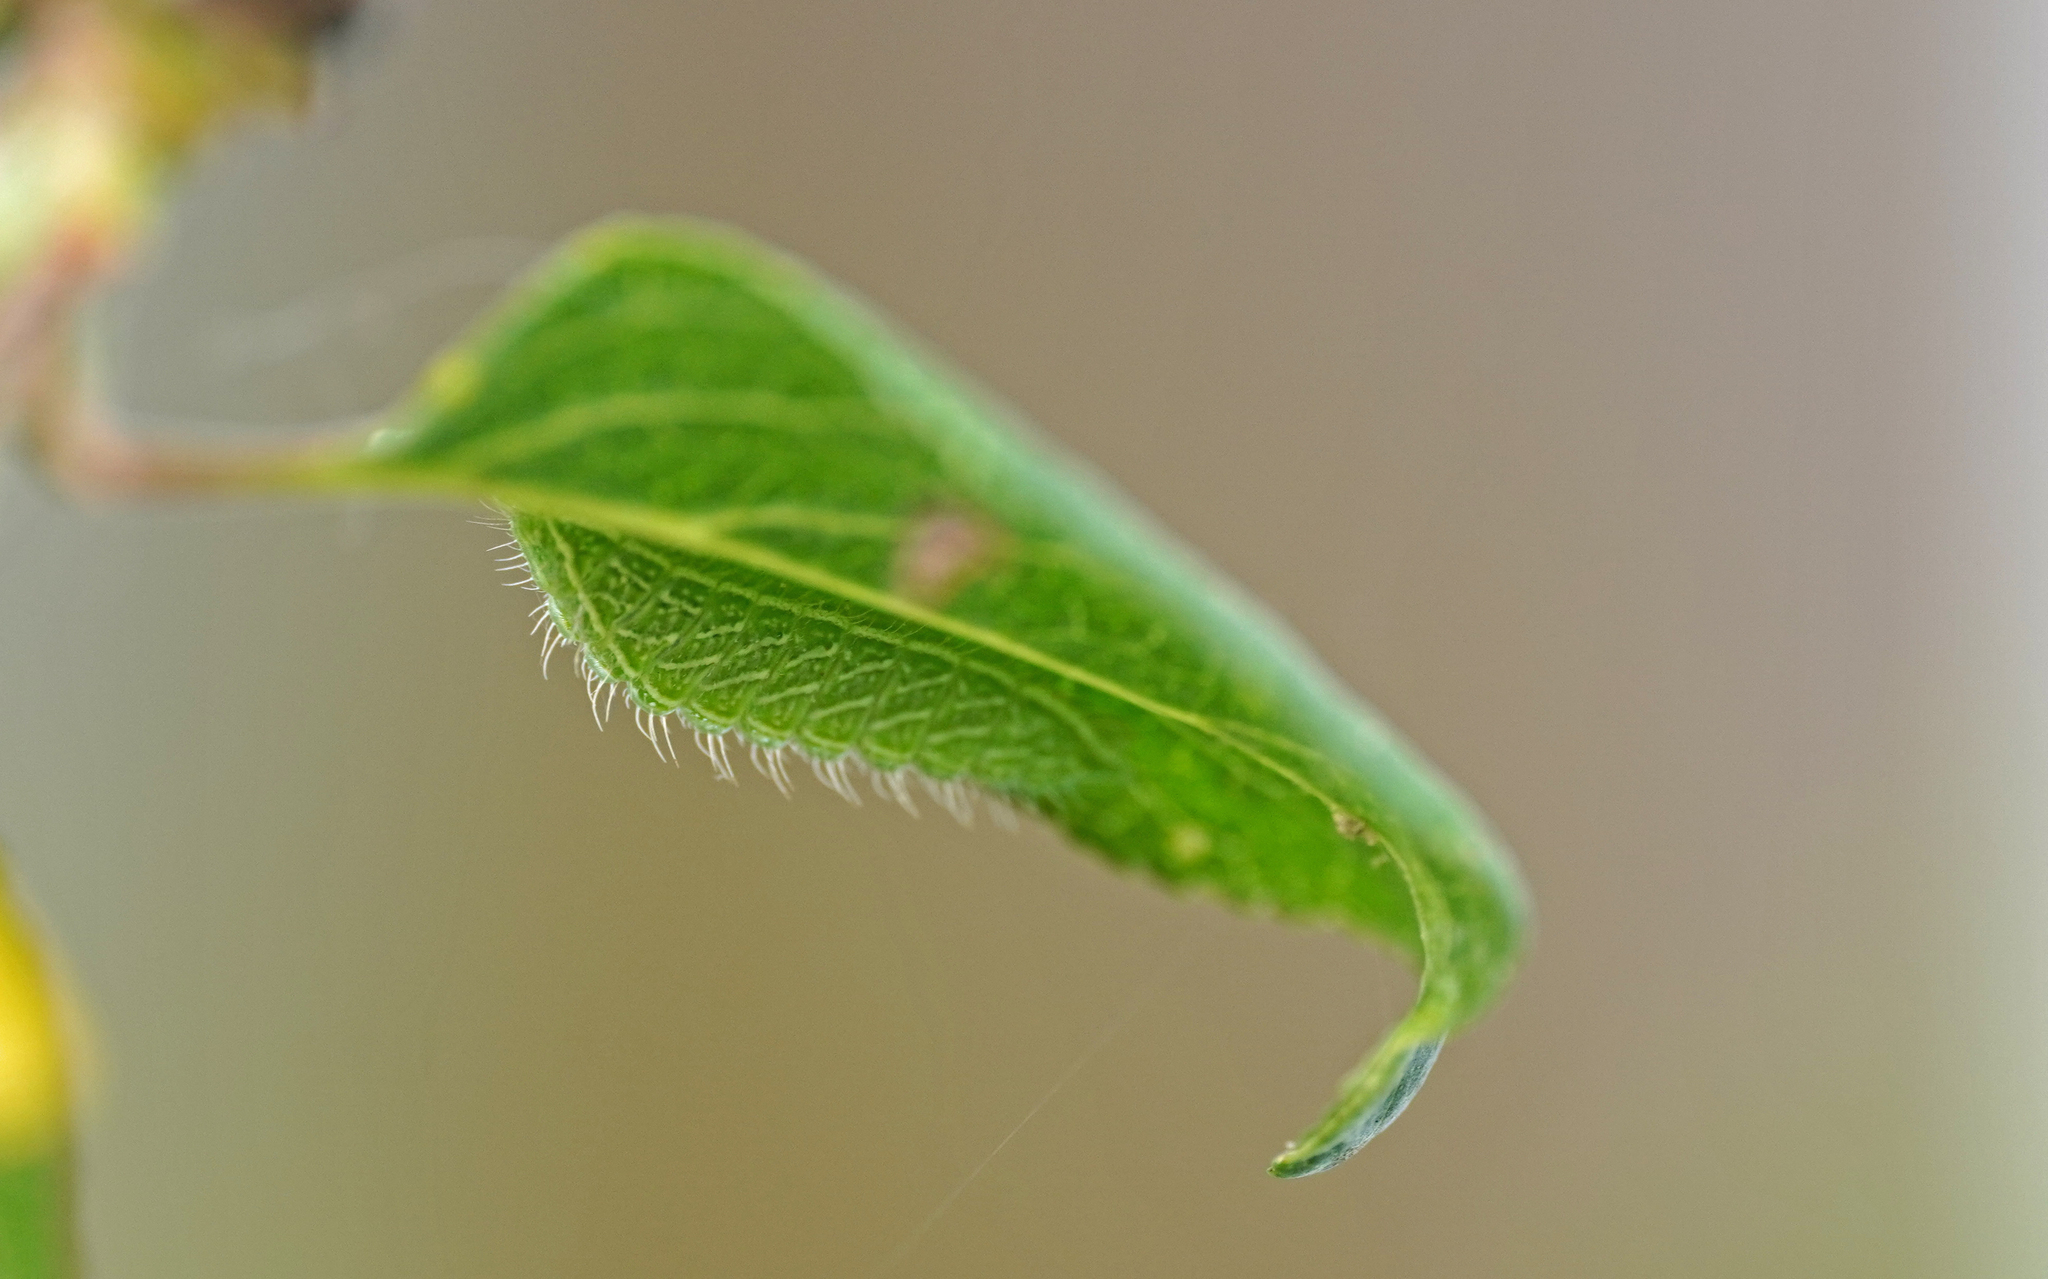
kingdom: Animalia
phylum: Arthropoda
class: Insecta
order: Lepidoptera
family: Lycaenidae
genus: Thecla
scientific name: Thecla betulae
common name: Brown hairstreak
